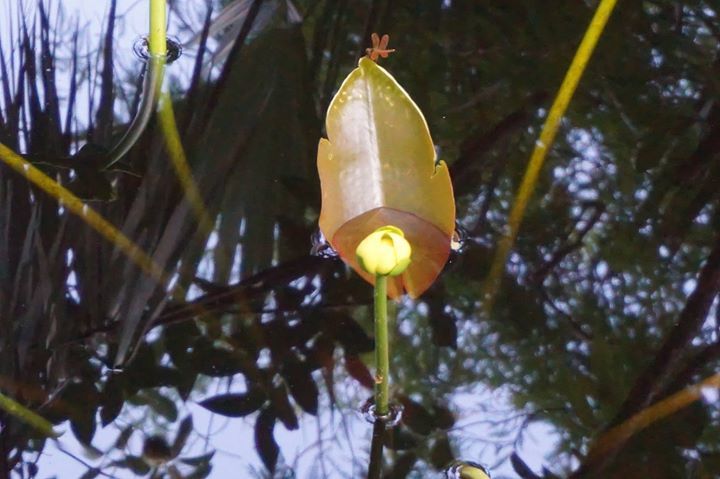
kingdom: Plantae
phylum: Tracheophyta
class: Magnoliopsida
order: Nymphaeales
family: Nymphaeaceae
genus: Nuphar
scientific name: Nuphar advena
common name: Spatter-dock
